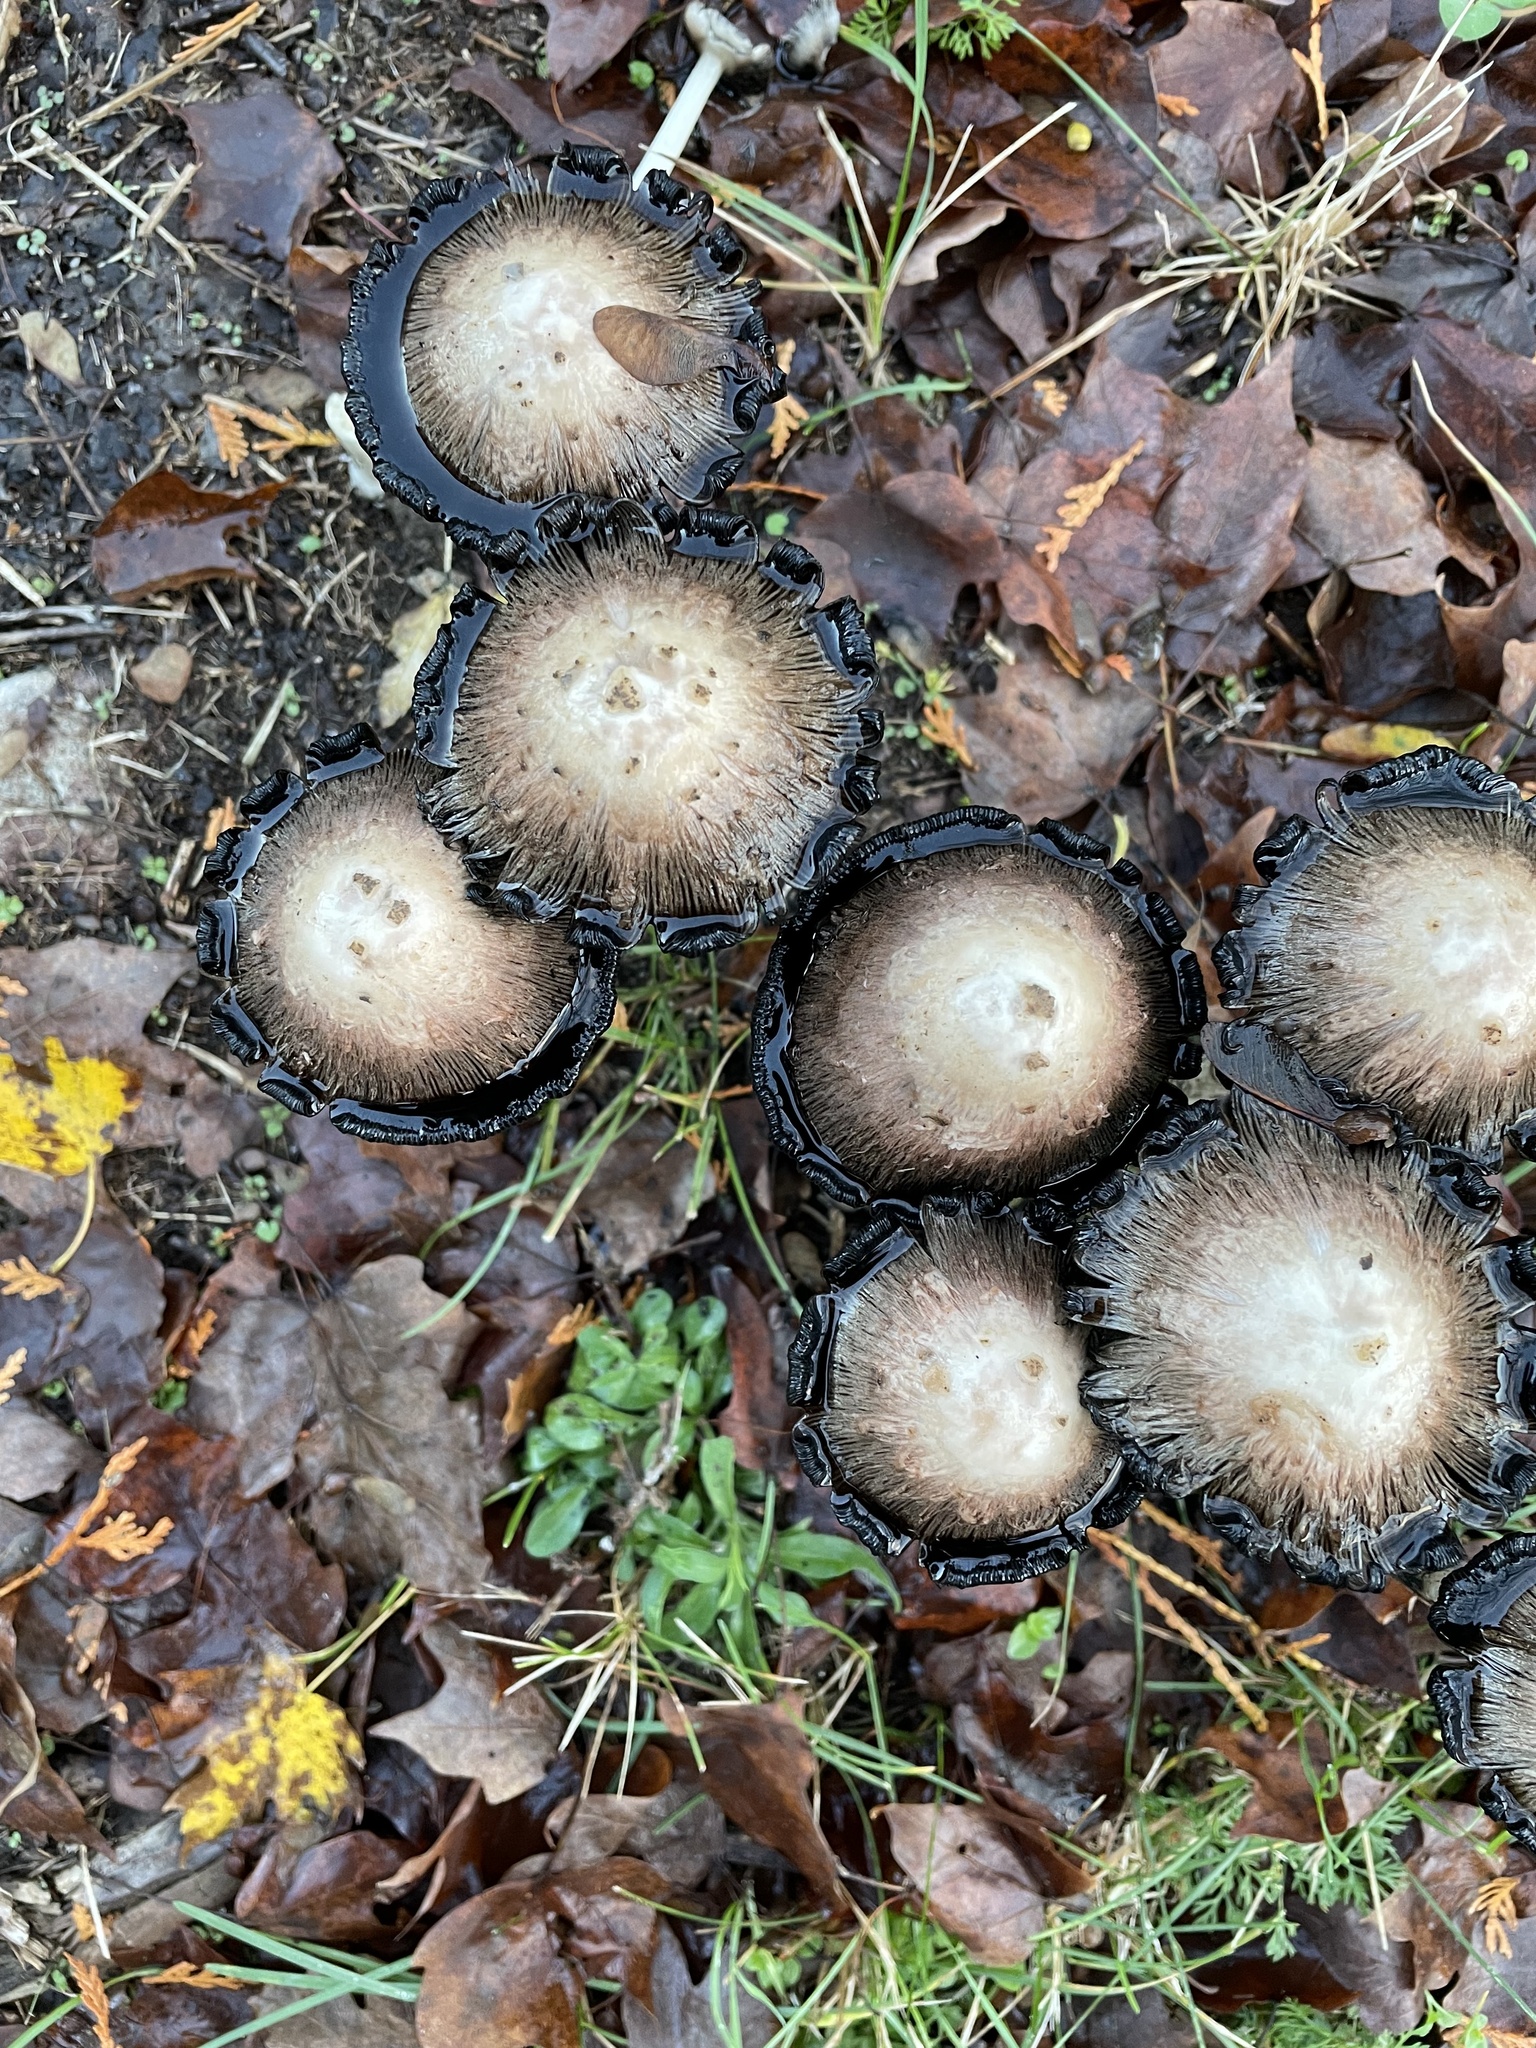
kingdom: Fungi
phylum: Basidiomycota
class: Agaricomycetes
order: Agaricales
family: Agaricaceae
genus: Coprinus
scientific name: Coprinus comatus
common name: Lawyer's wig
